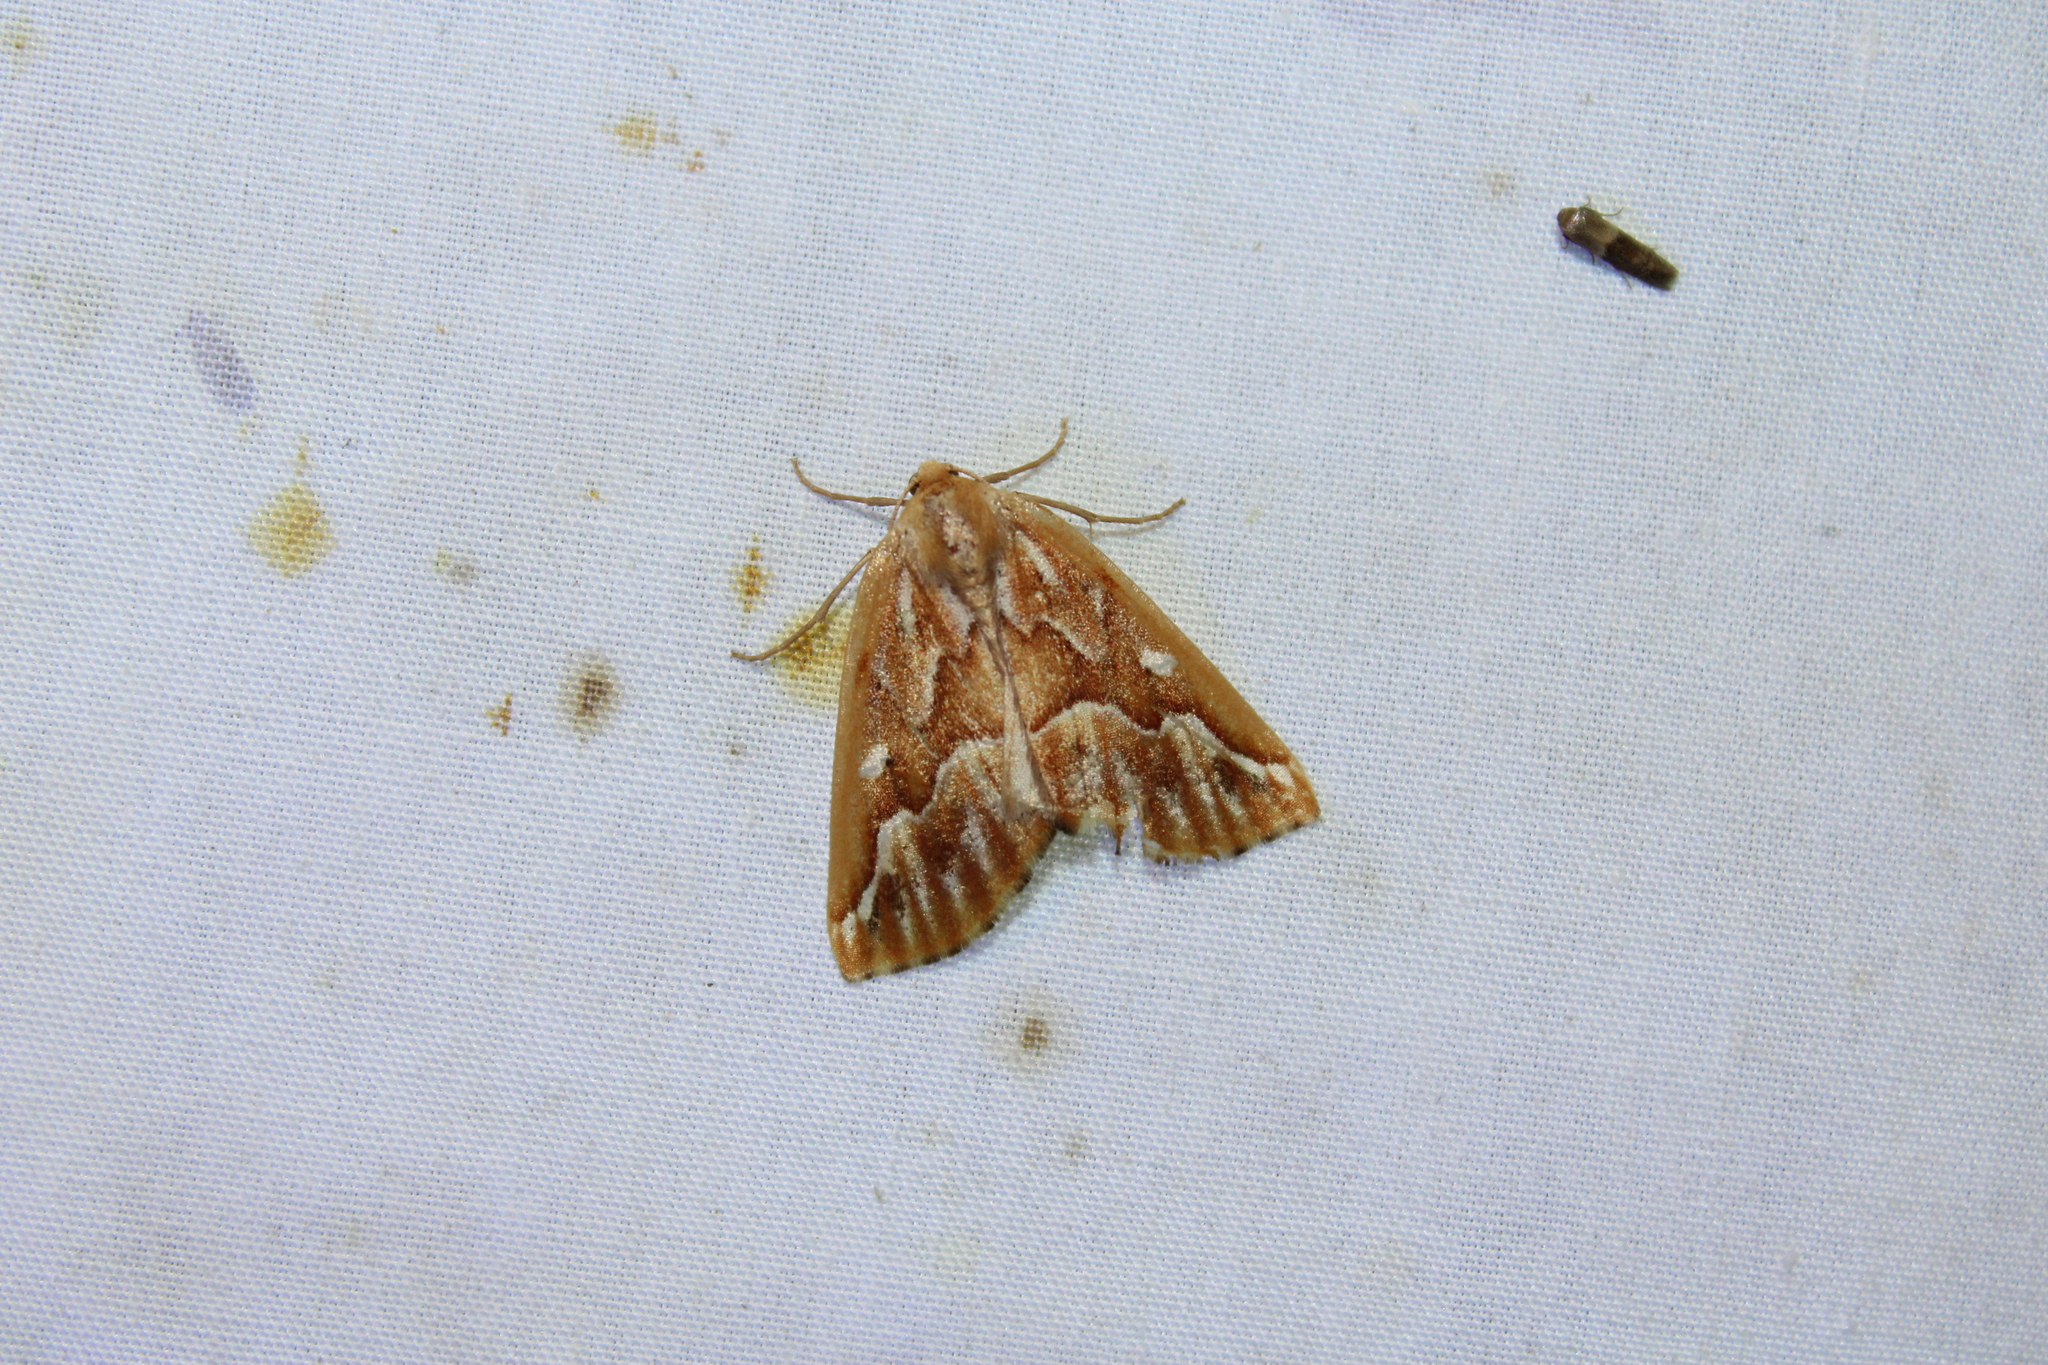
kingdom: Animalia
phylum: Arthropoda
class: Insecta
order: Lepidoptera
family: Geometridae
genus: Caripeta
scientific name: Caripeta piniata
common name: Northern pine looper moth
